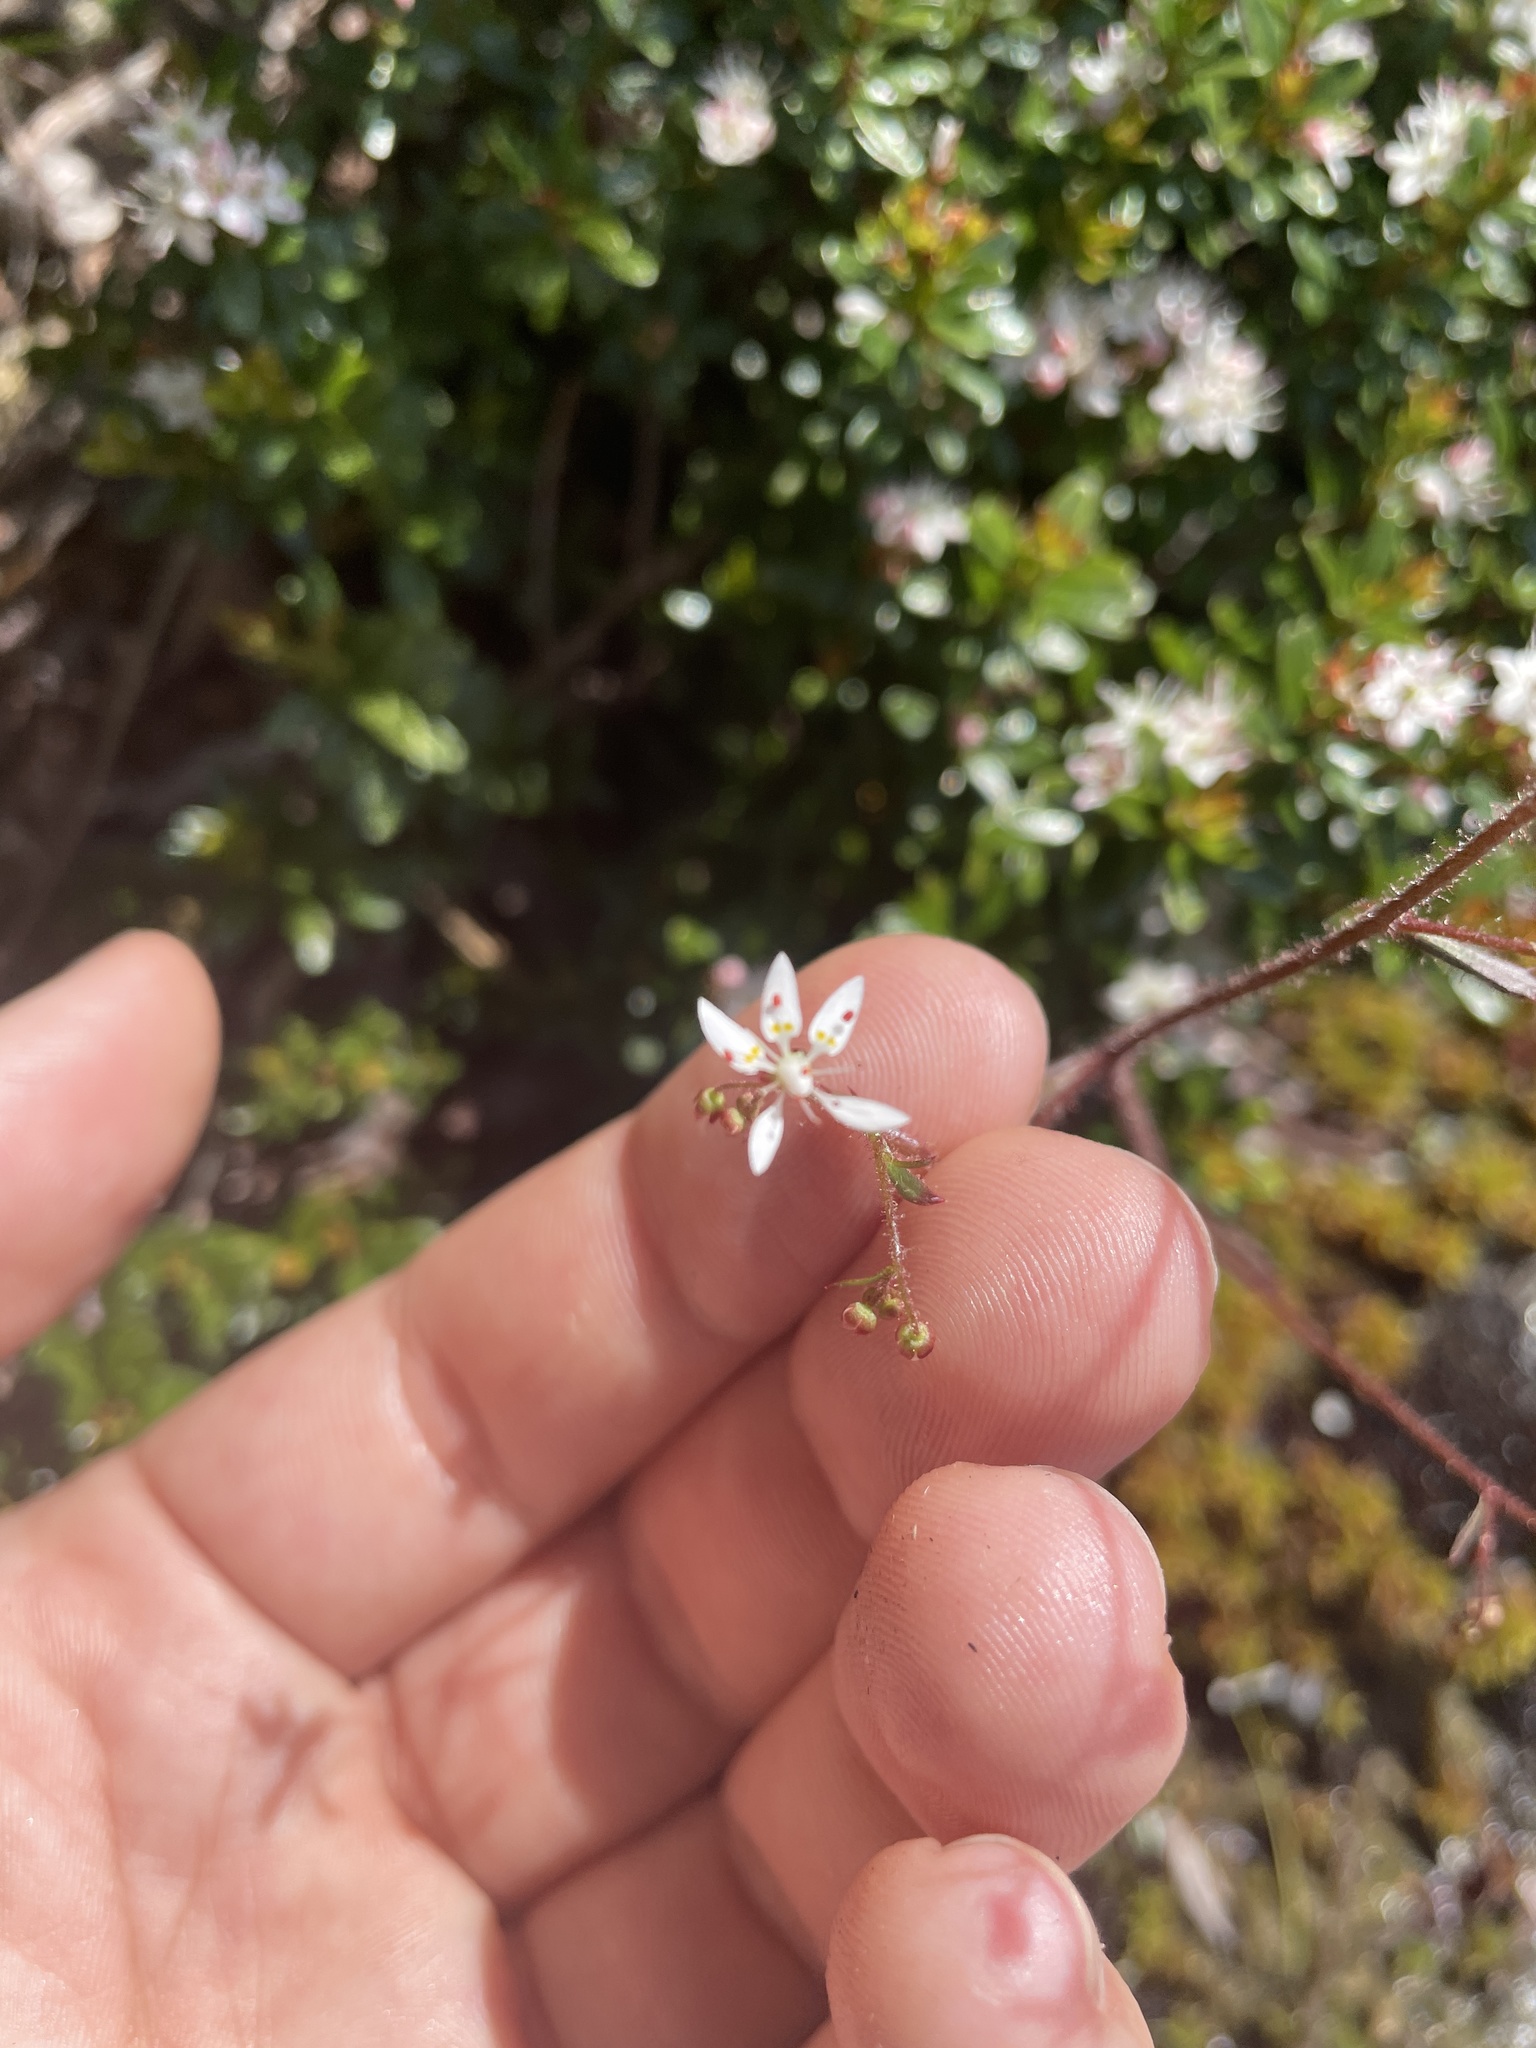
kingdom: Plantae
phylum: Tracheophyta
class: Magnoliopsida
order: Saxifragales
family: Saxifragaceae
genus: Micranthes
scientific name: Micranthes petiolaris
